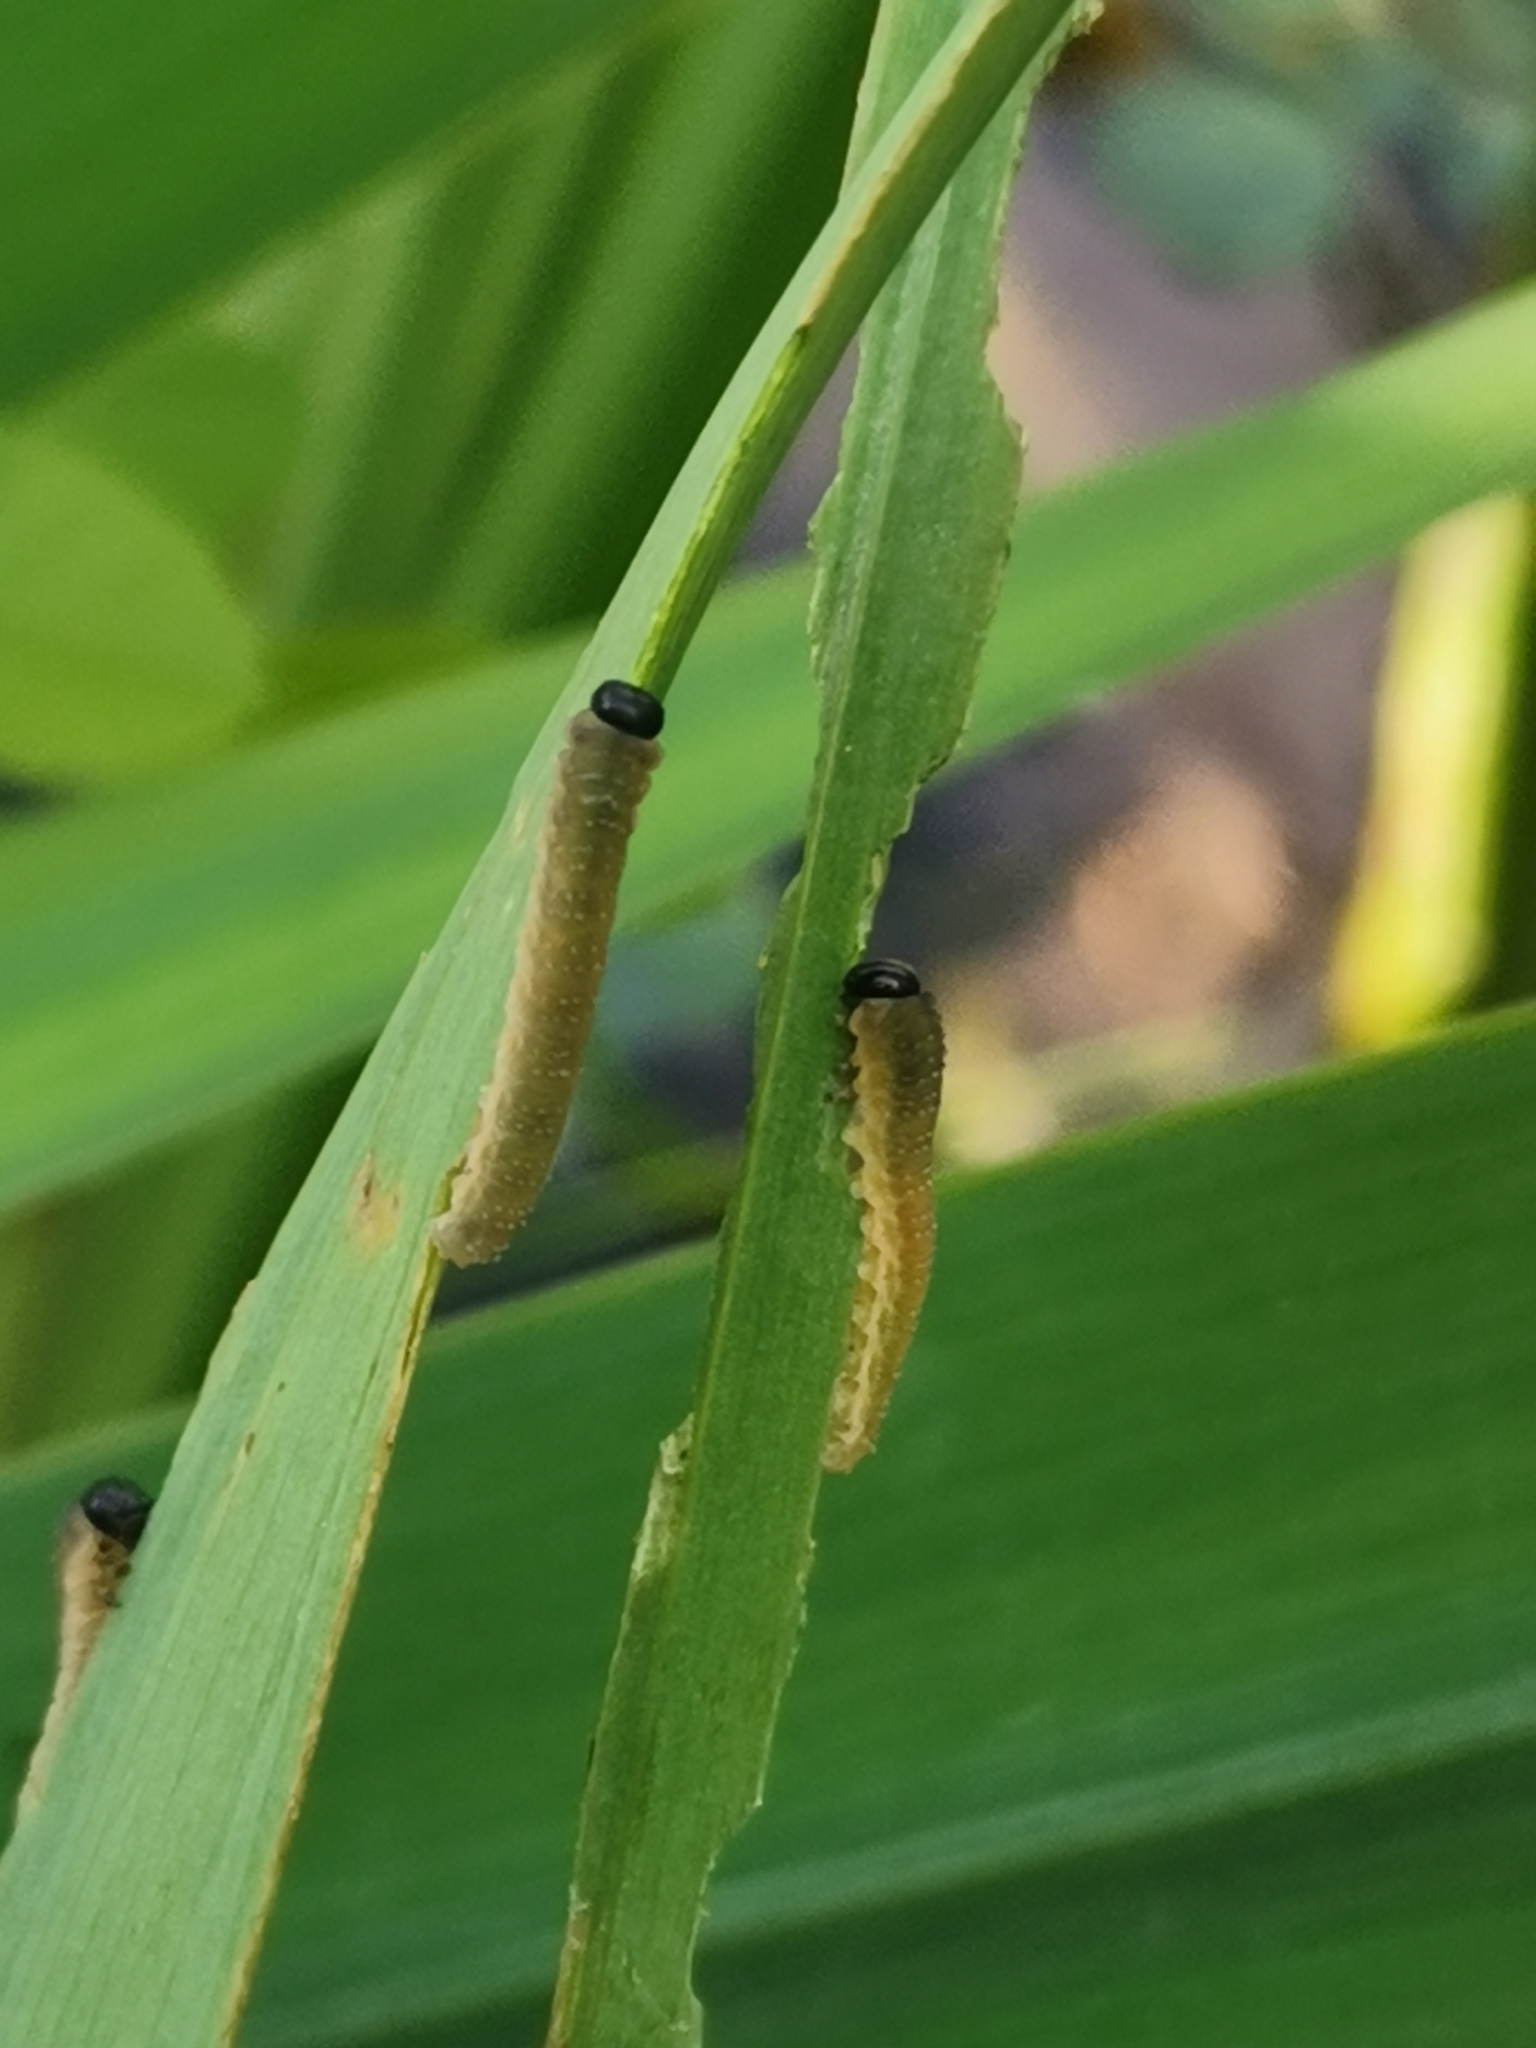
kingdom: Animalia
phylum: Arthropoda
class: Insecta
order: Hymenoptera
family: Tenthredinidae
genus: Rhadinoceraea
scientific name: Rhadinoceraea micans
